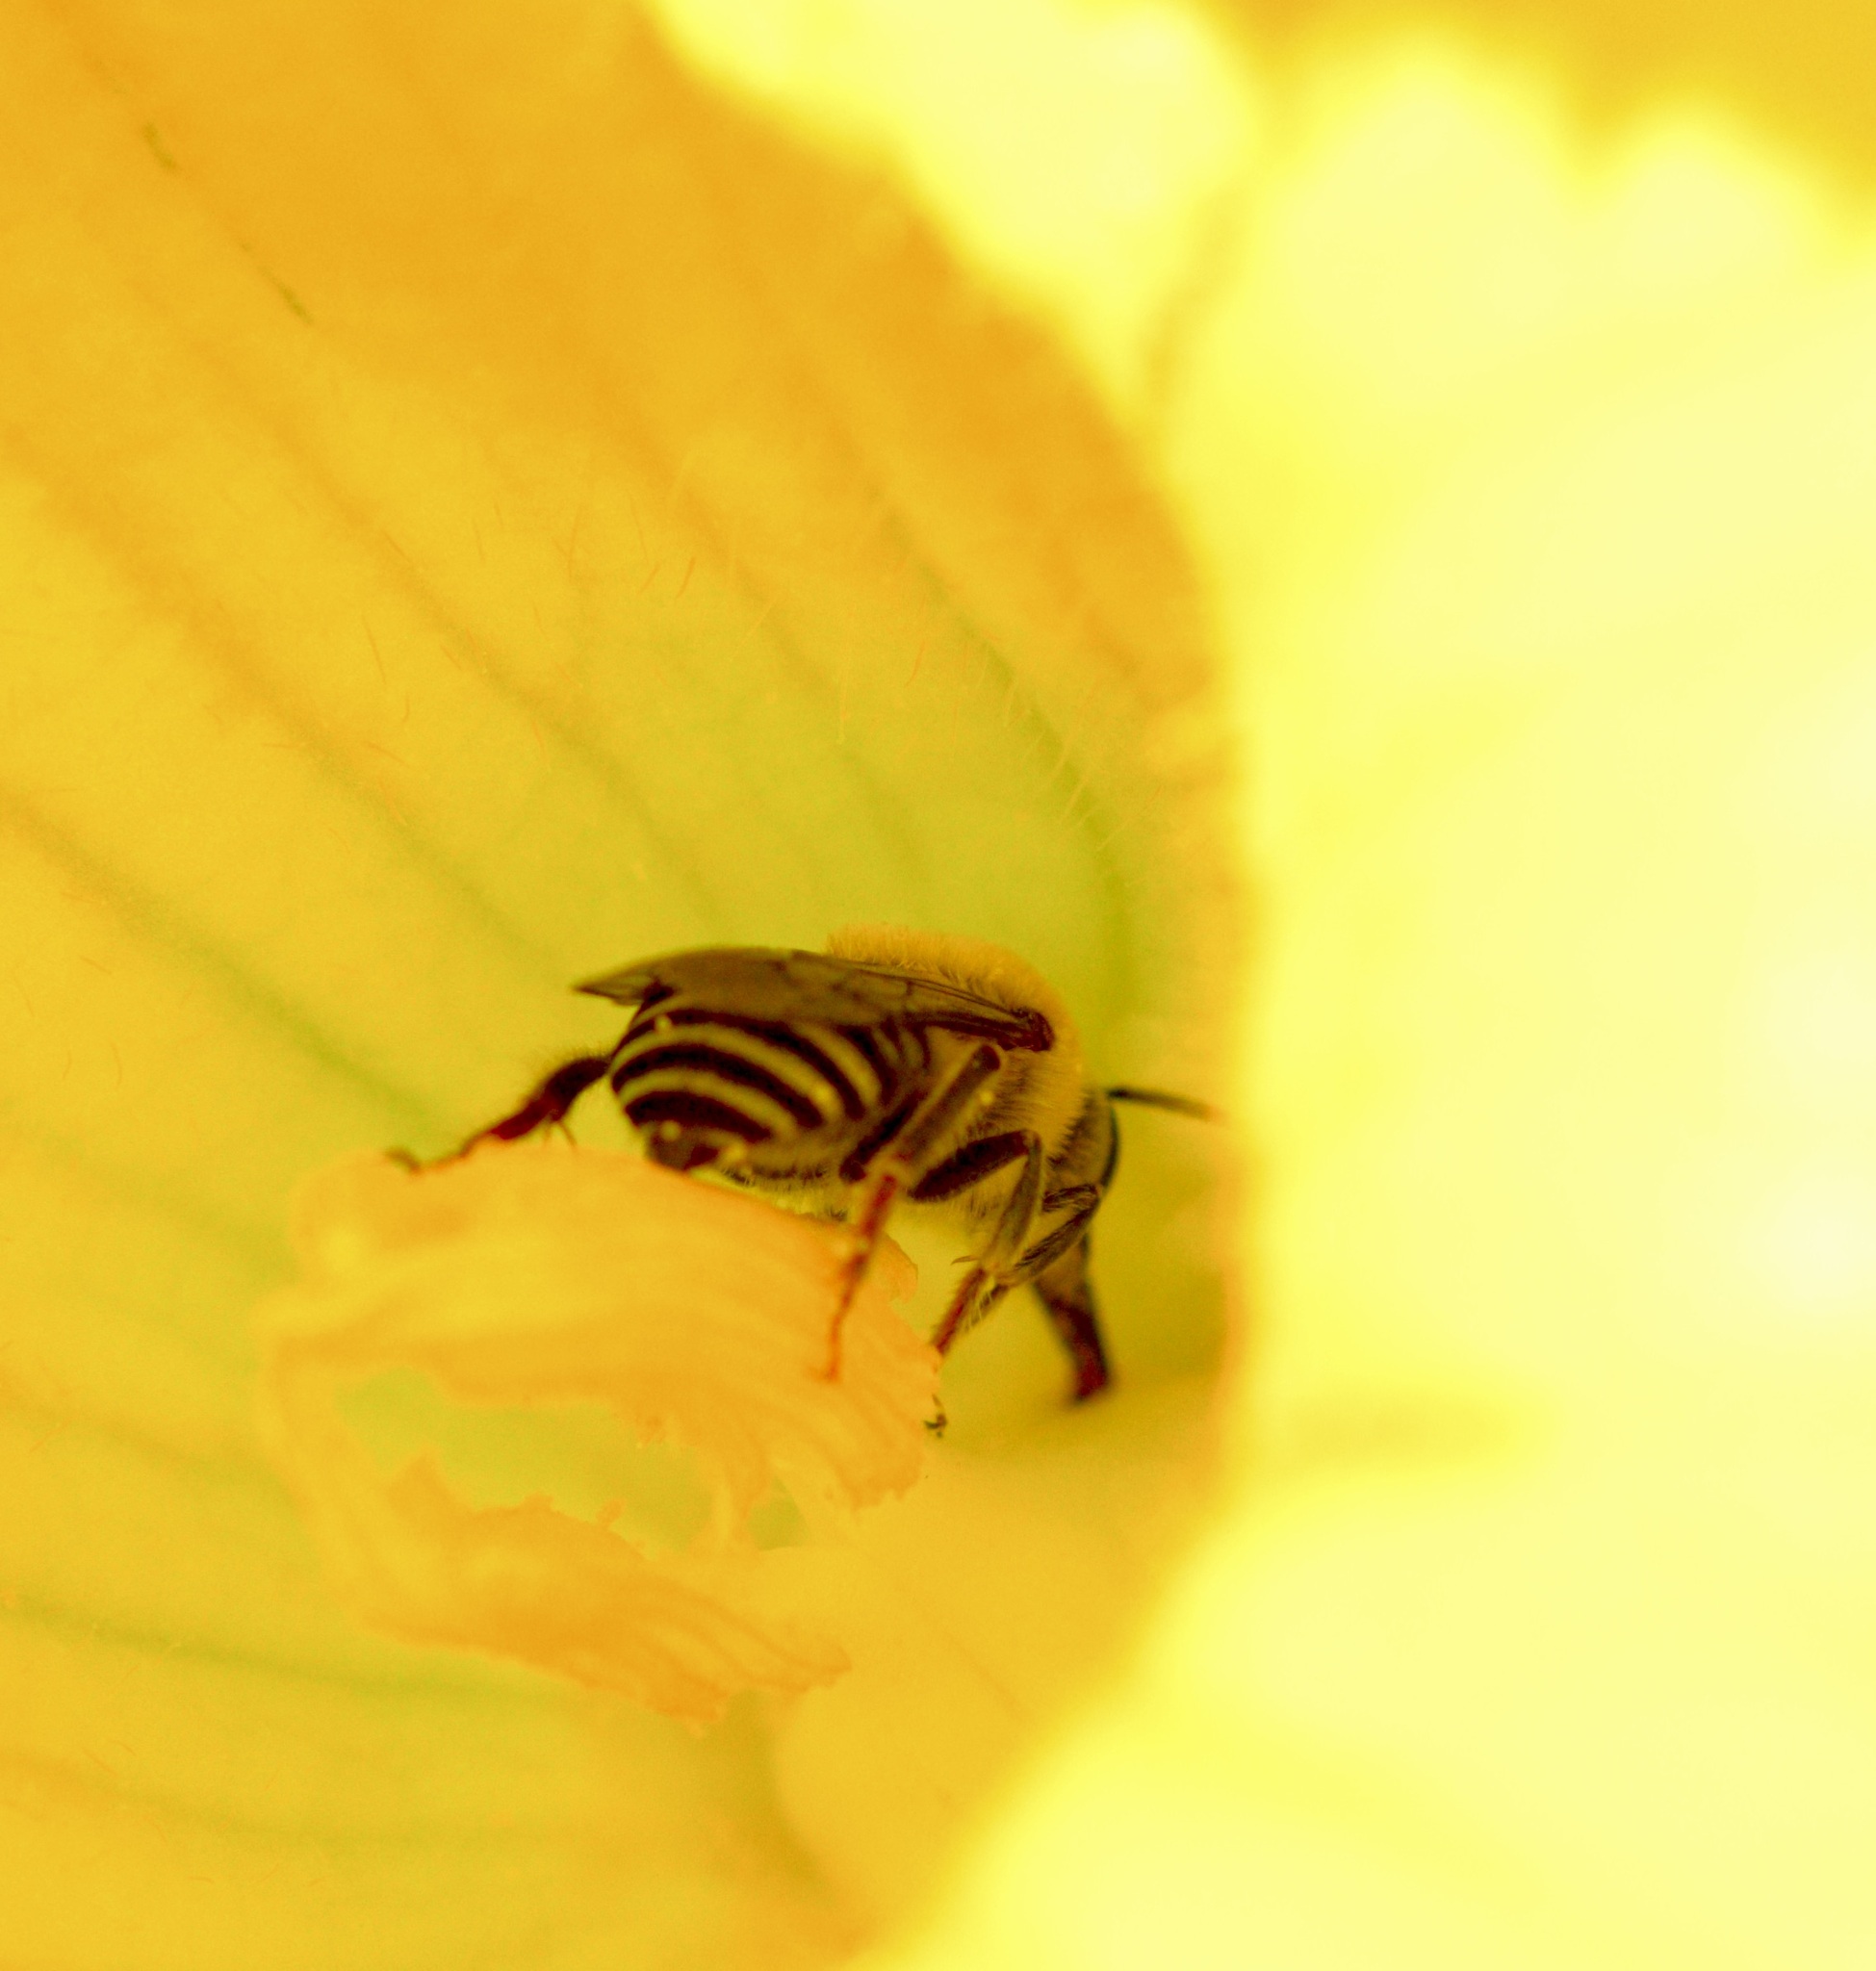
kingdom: Animalia
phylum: Arthropoda
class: Insecta
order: Hymenoptera
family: Apidae
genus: Peponapis
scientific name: Peponapis pruinosa
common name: Pruinose squash bee
